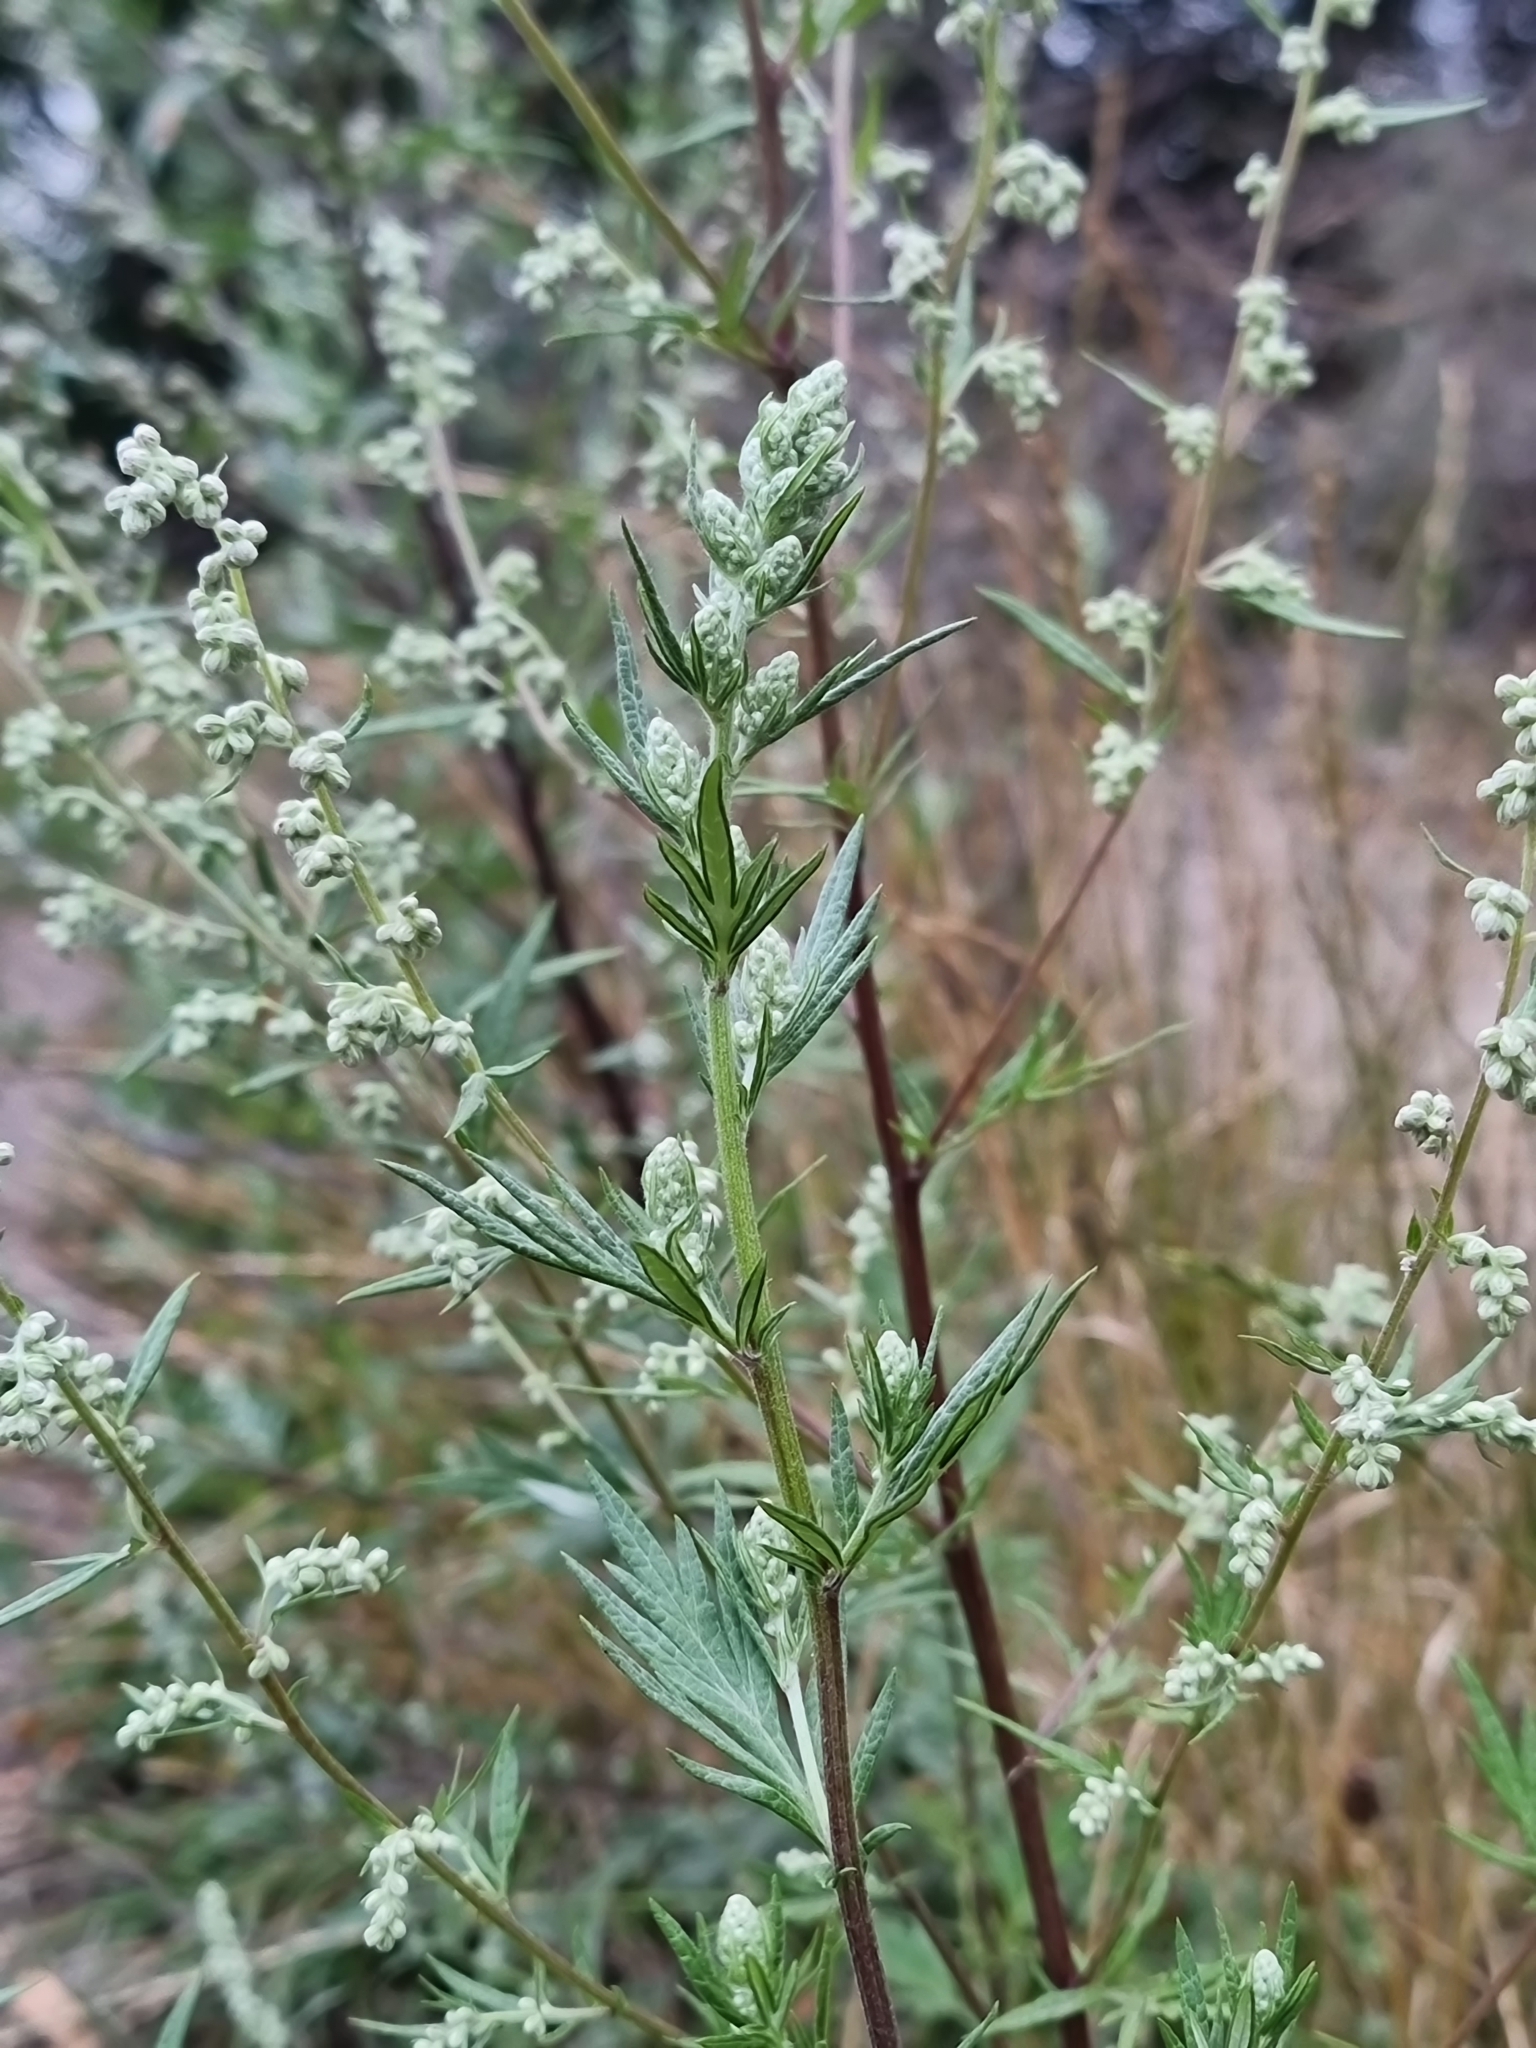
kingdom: Plantae
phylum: Tracheophyta
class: Magnoliopsida
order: Asterales
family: Asteraceae
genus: Artemisia
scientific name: Artemisia vulgaris
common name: Mugwort
